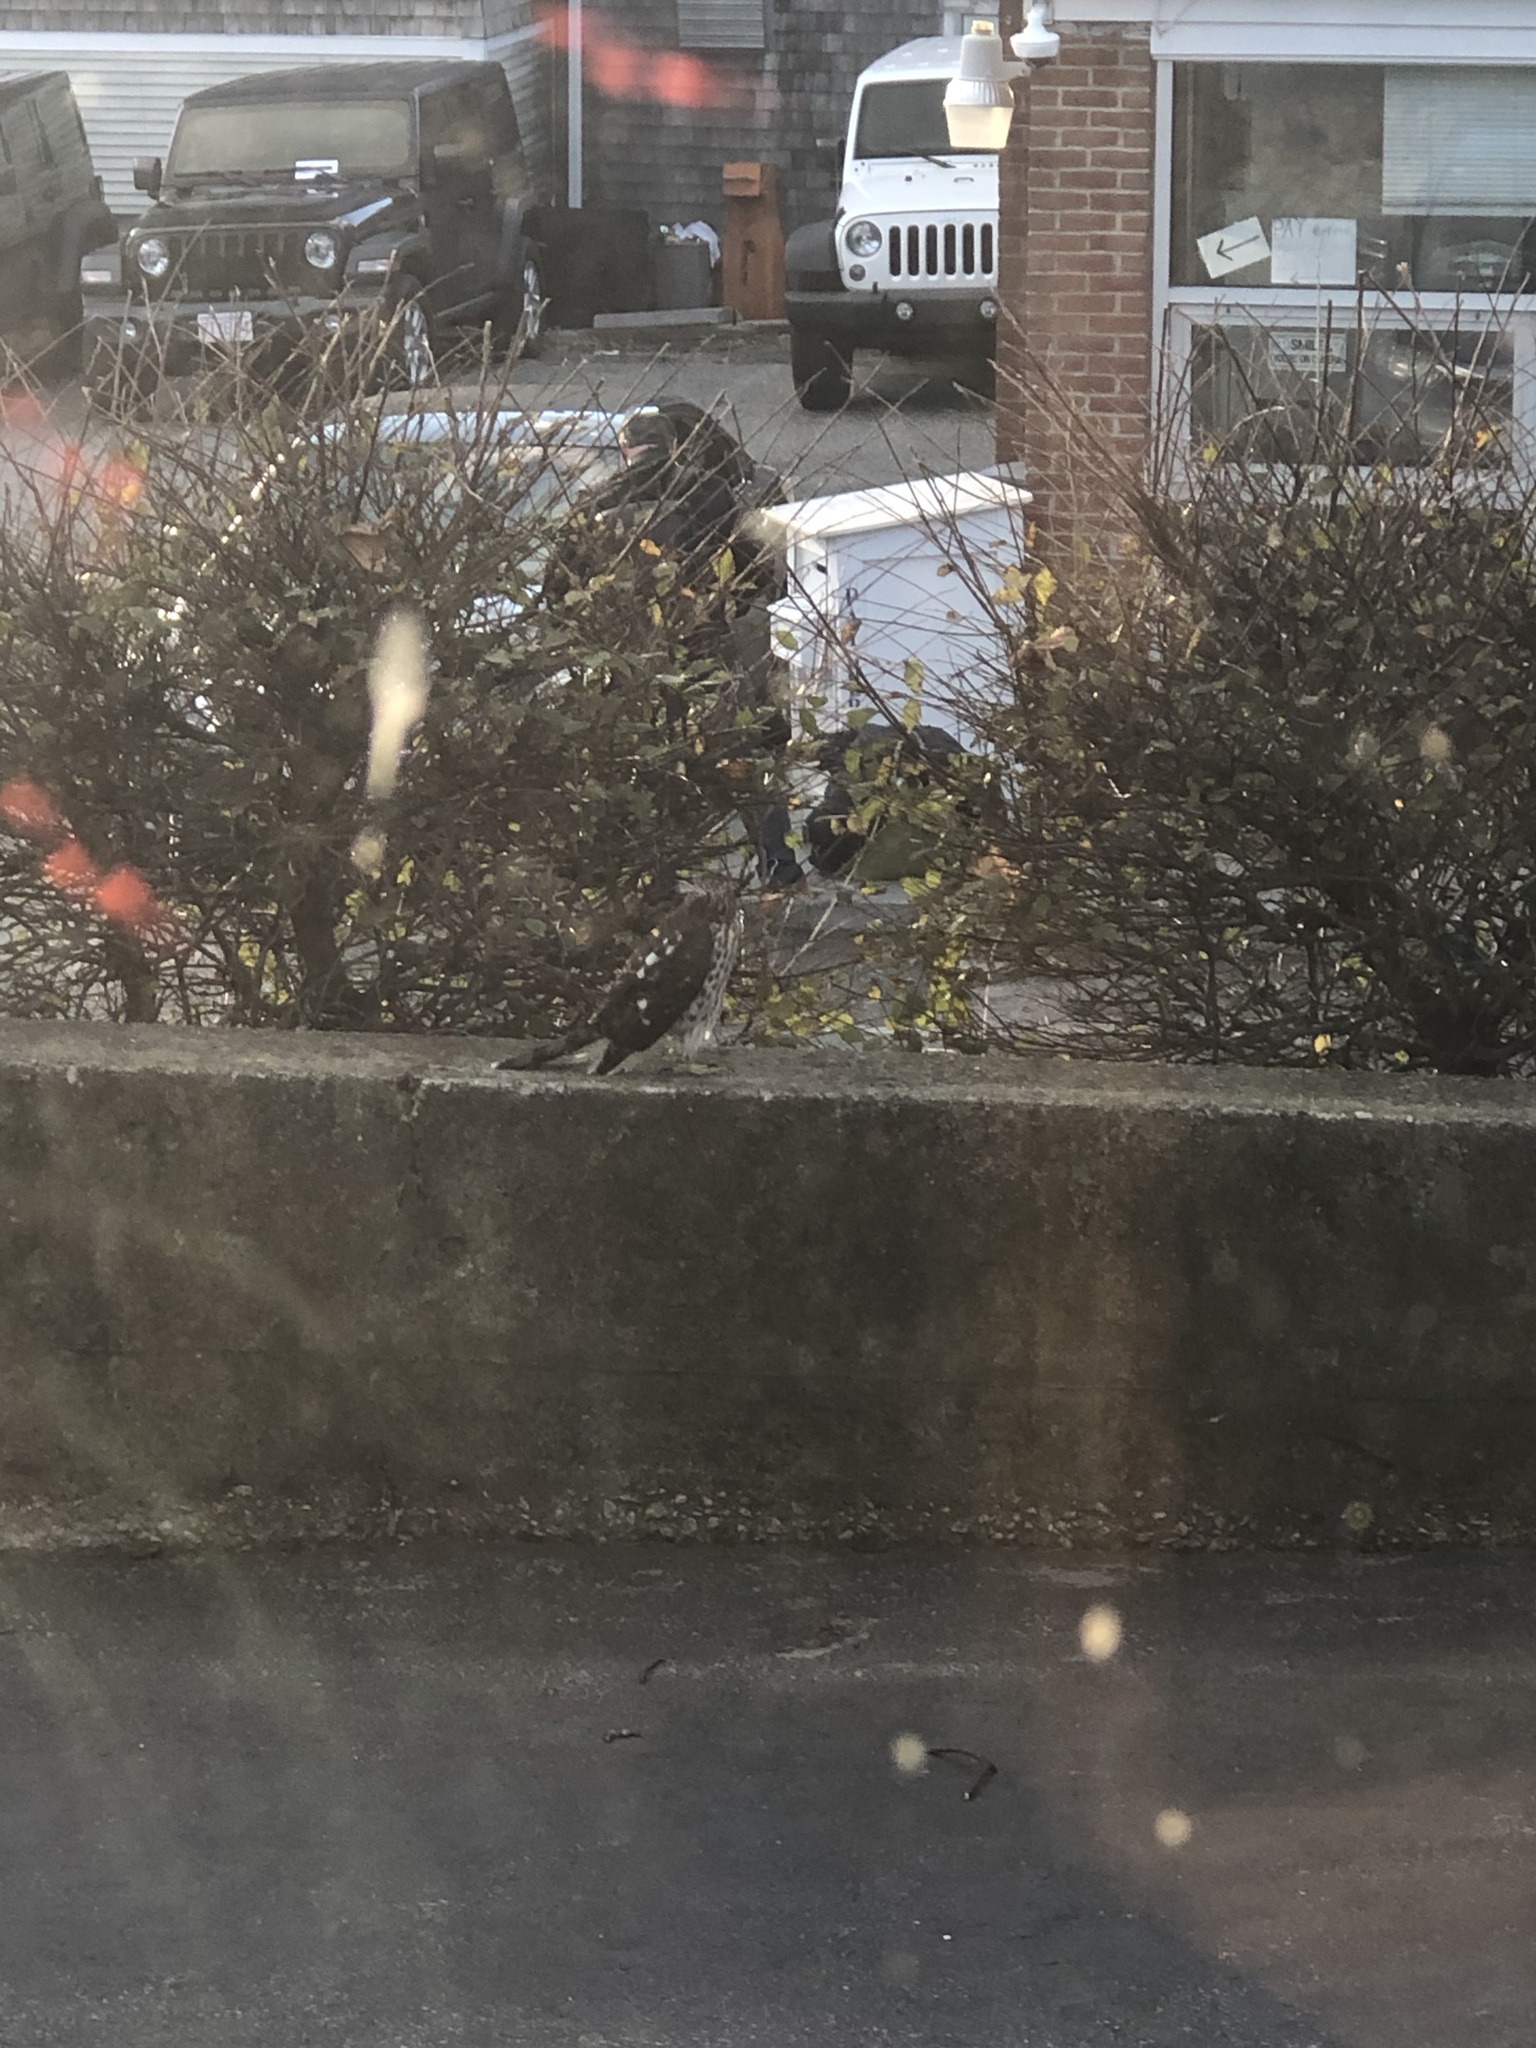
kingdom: Animalia
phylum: Chordata
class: Aves
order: Accipitriformes
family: Accipitridae
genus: Accipiter
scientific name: Accipiter cooperii
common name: Cooper's hawk
